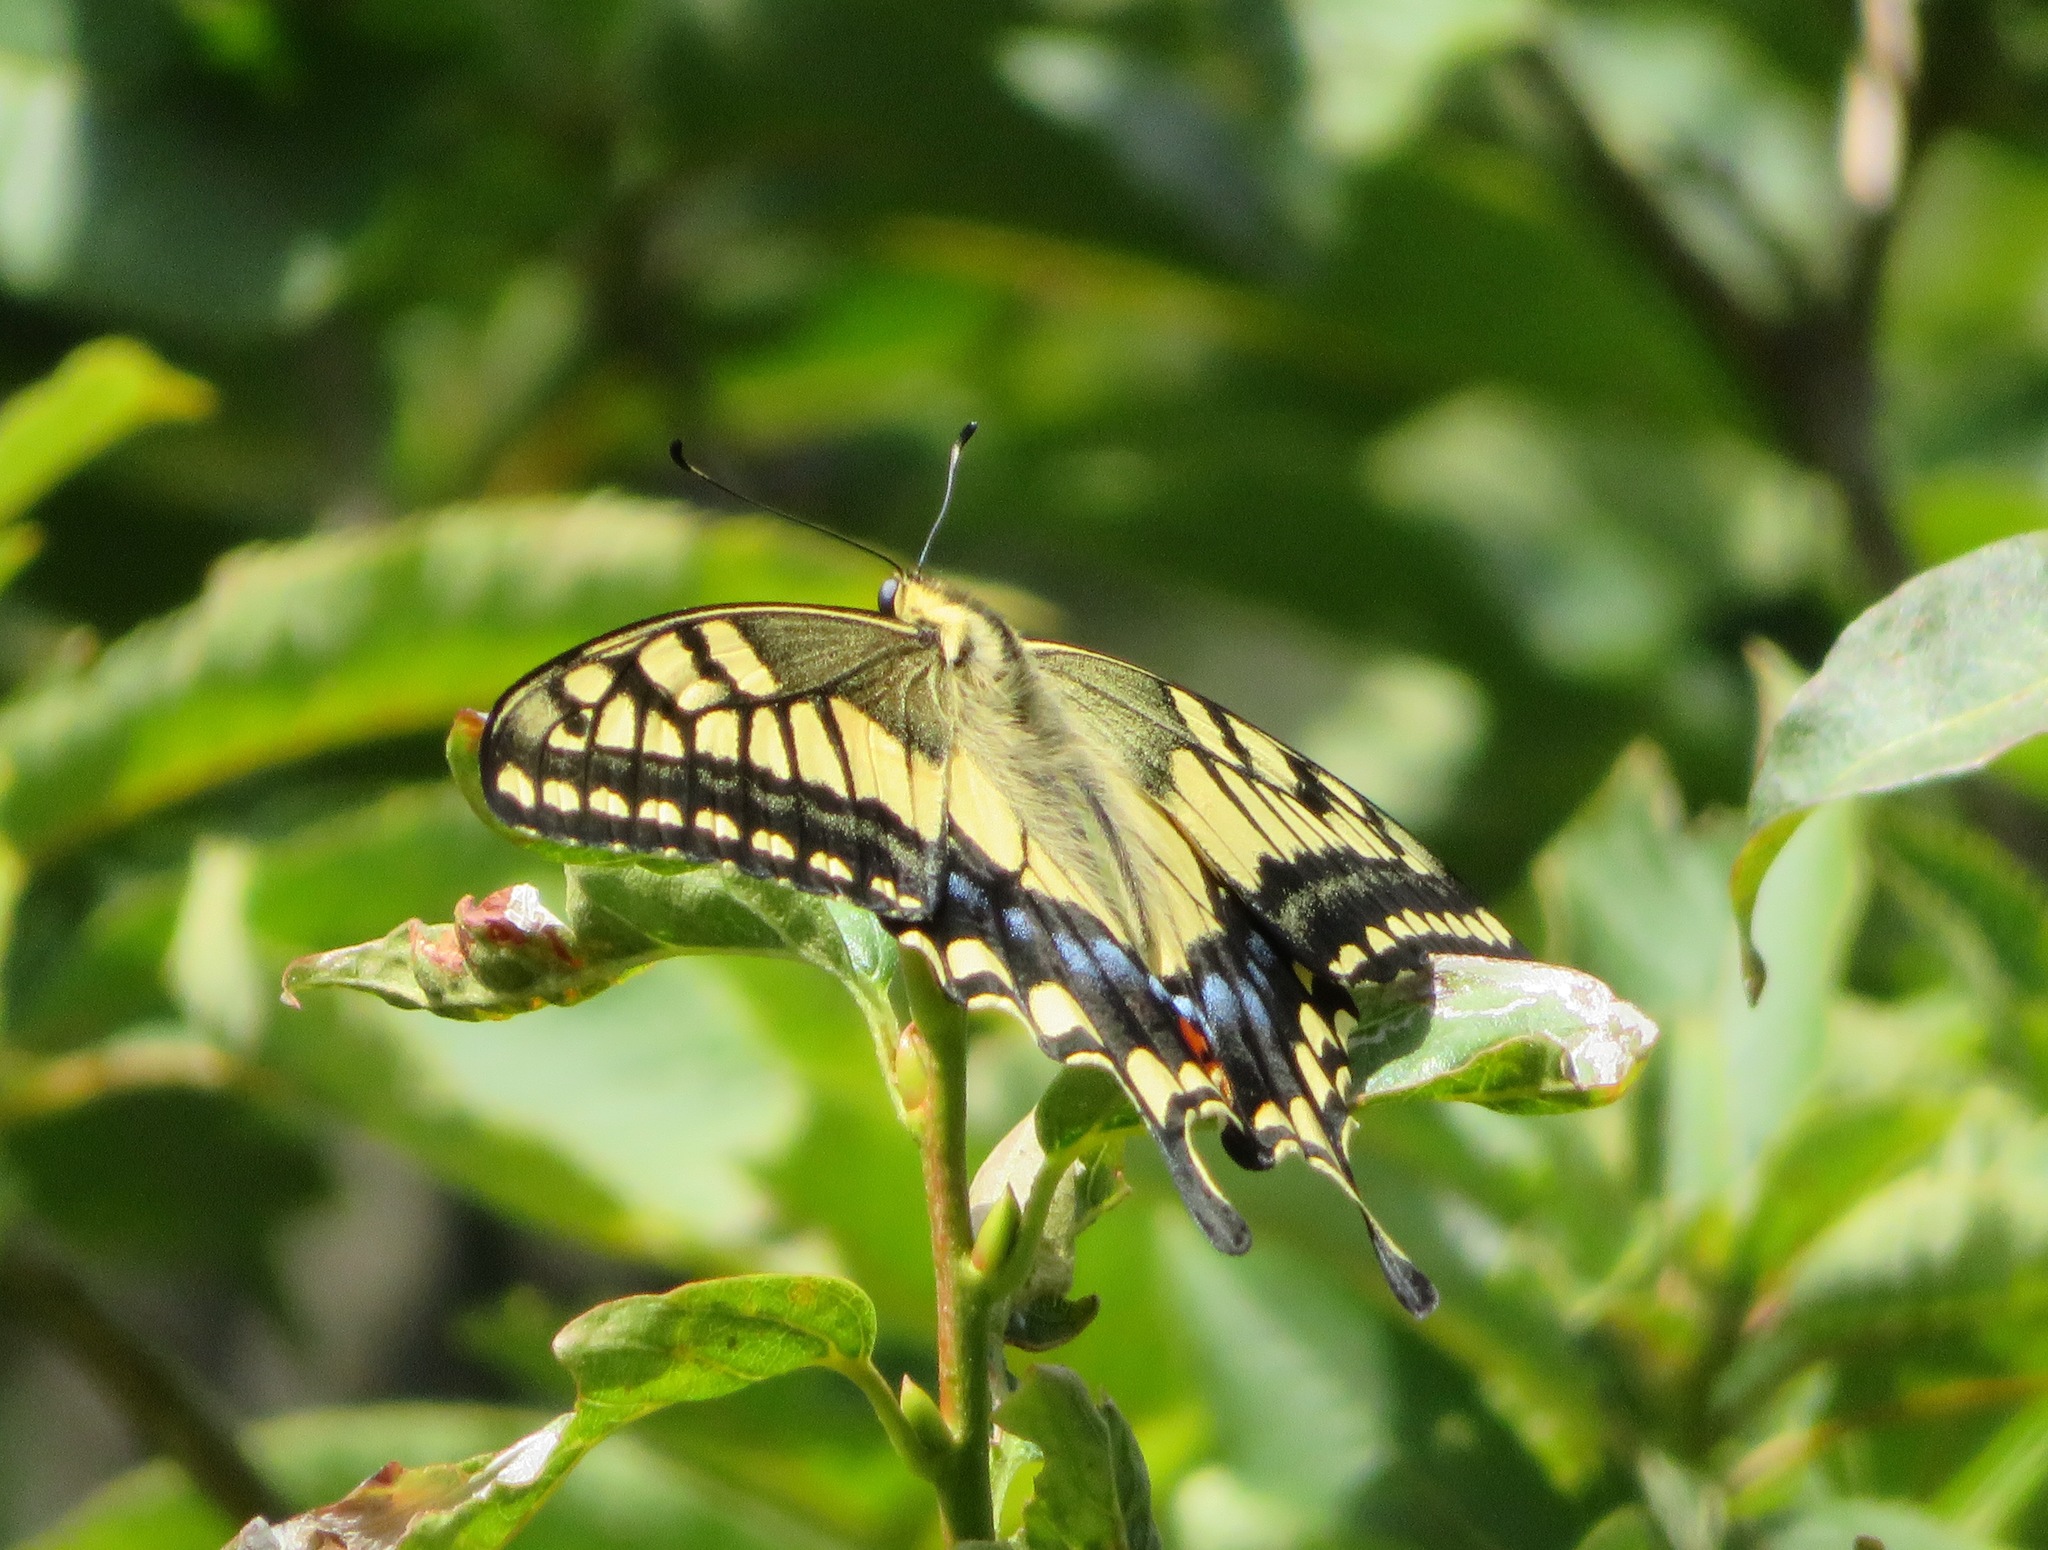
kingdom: Animalia
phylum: Arthropoda
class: Insecta
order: Lepidoptera
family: Papilionidae
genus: Papilio
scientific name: Papilio machaon
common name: Swallowtail
